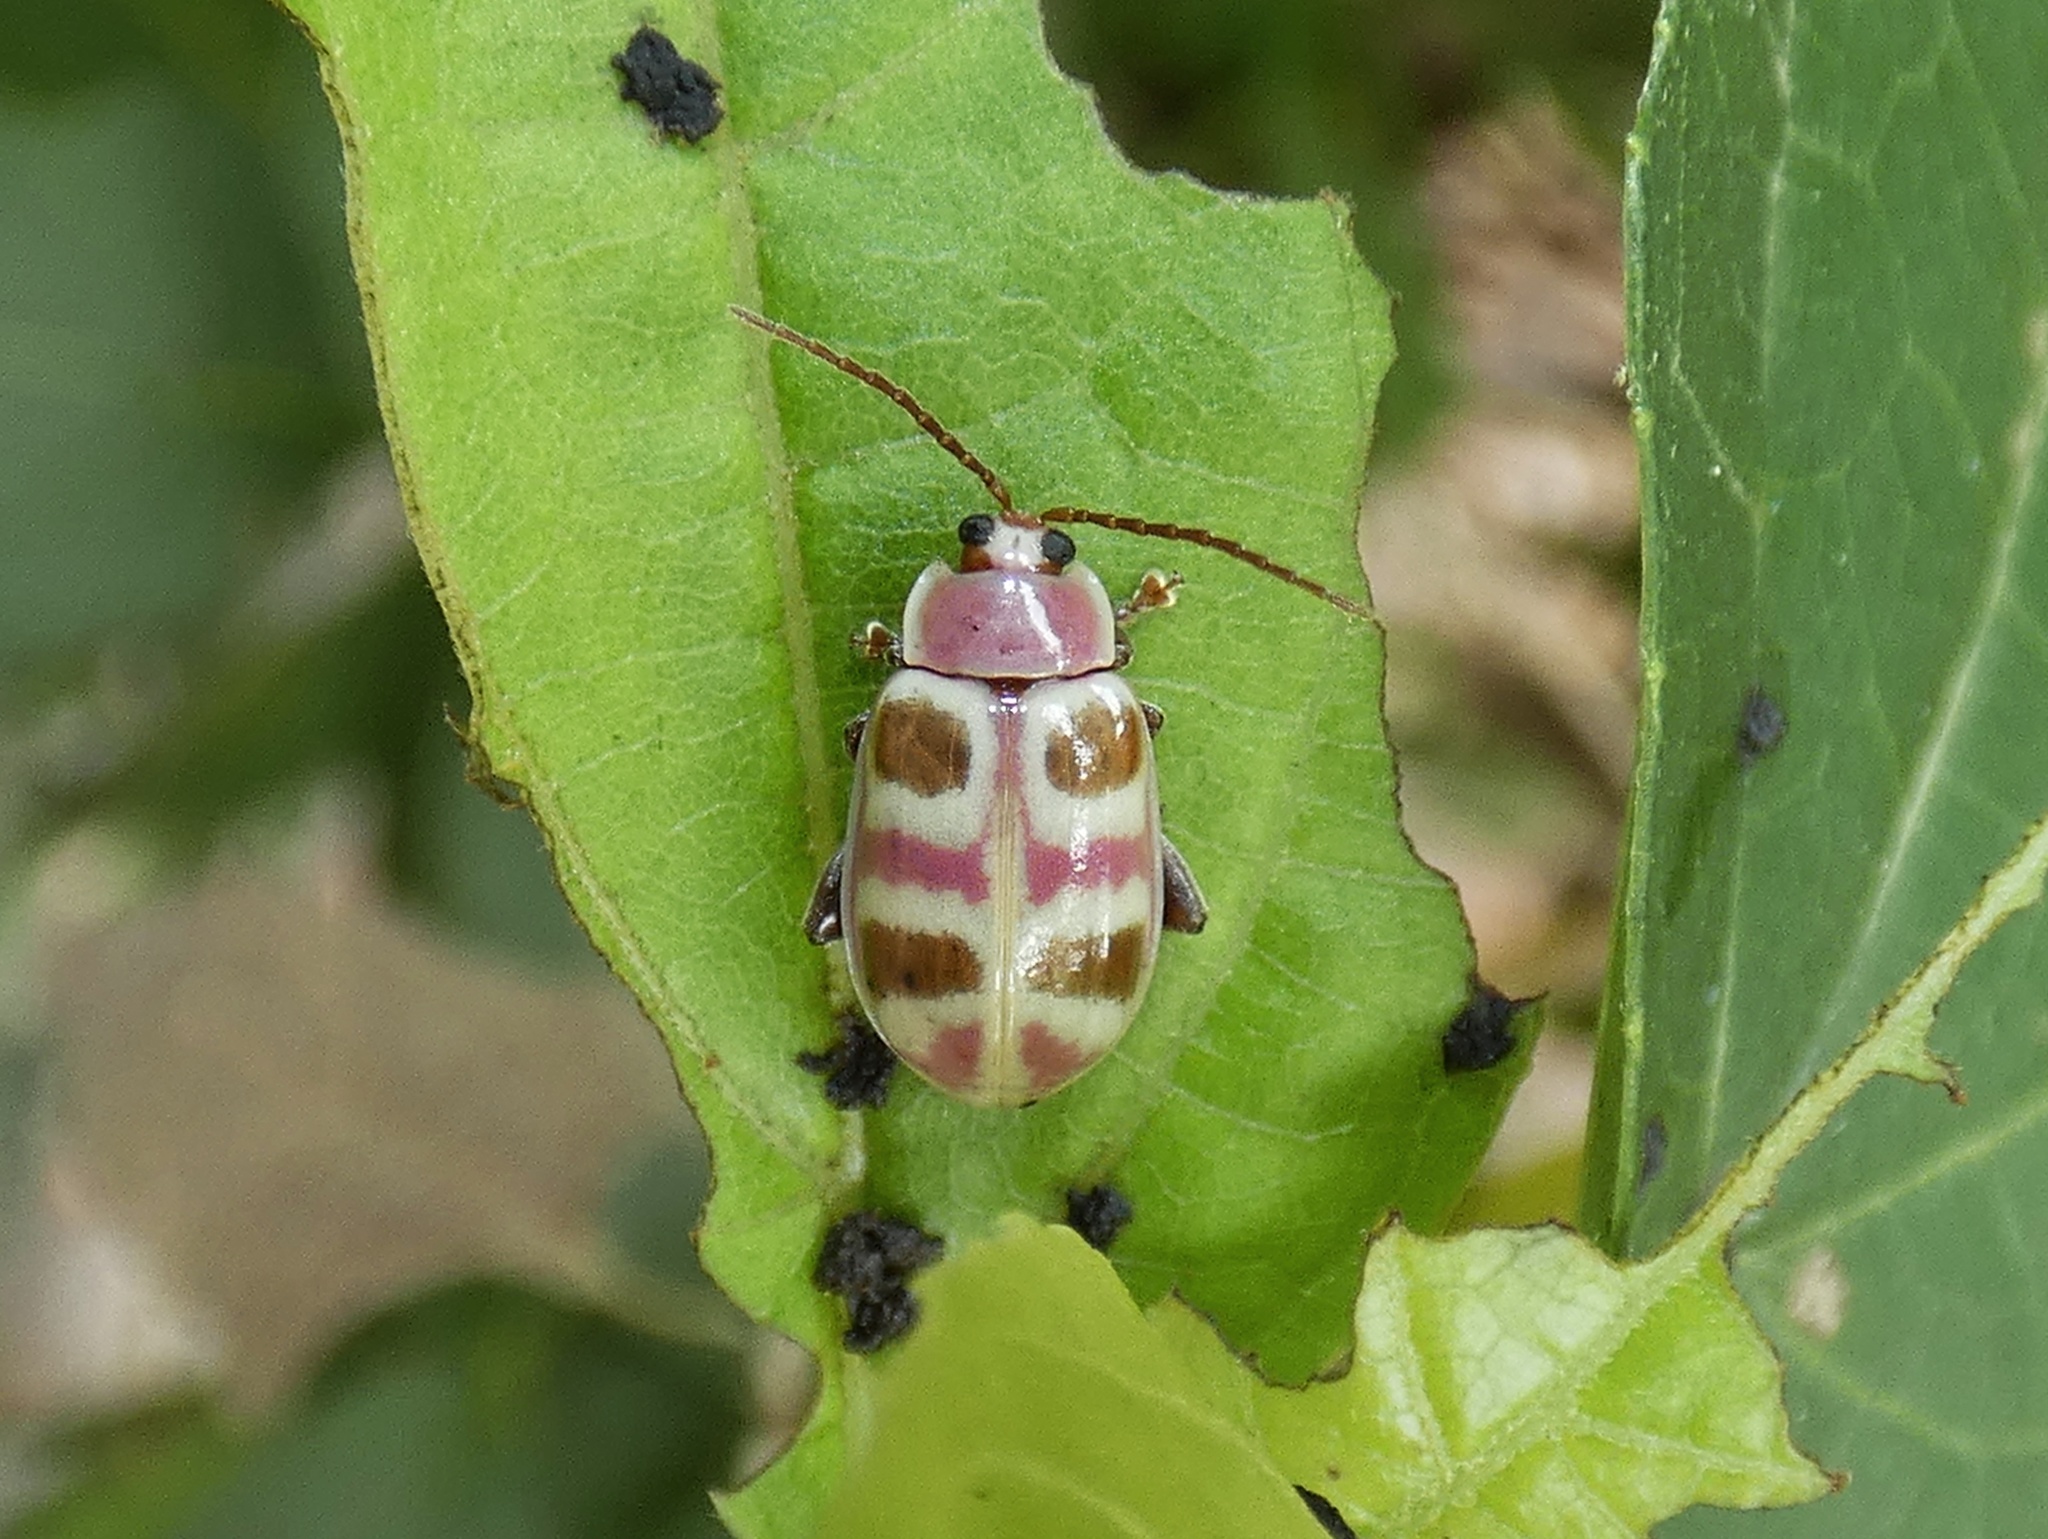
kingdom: Animalia
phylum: Arthropoda
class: Insecta
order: Coleoptera
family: Chrysomelidae
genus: Asphaera
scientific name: Asphaera
